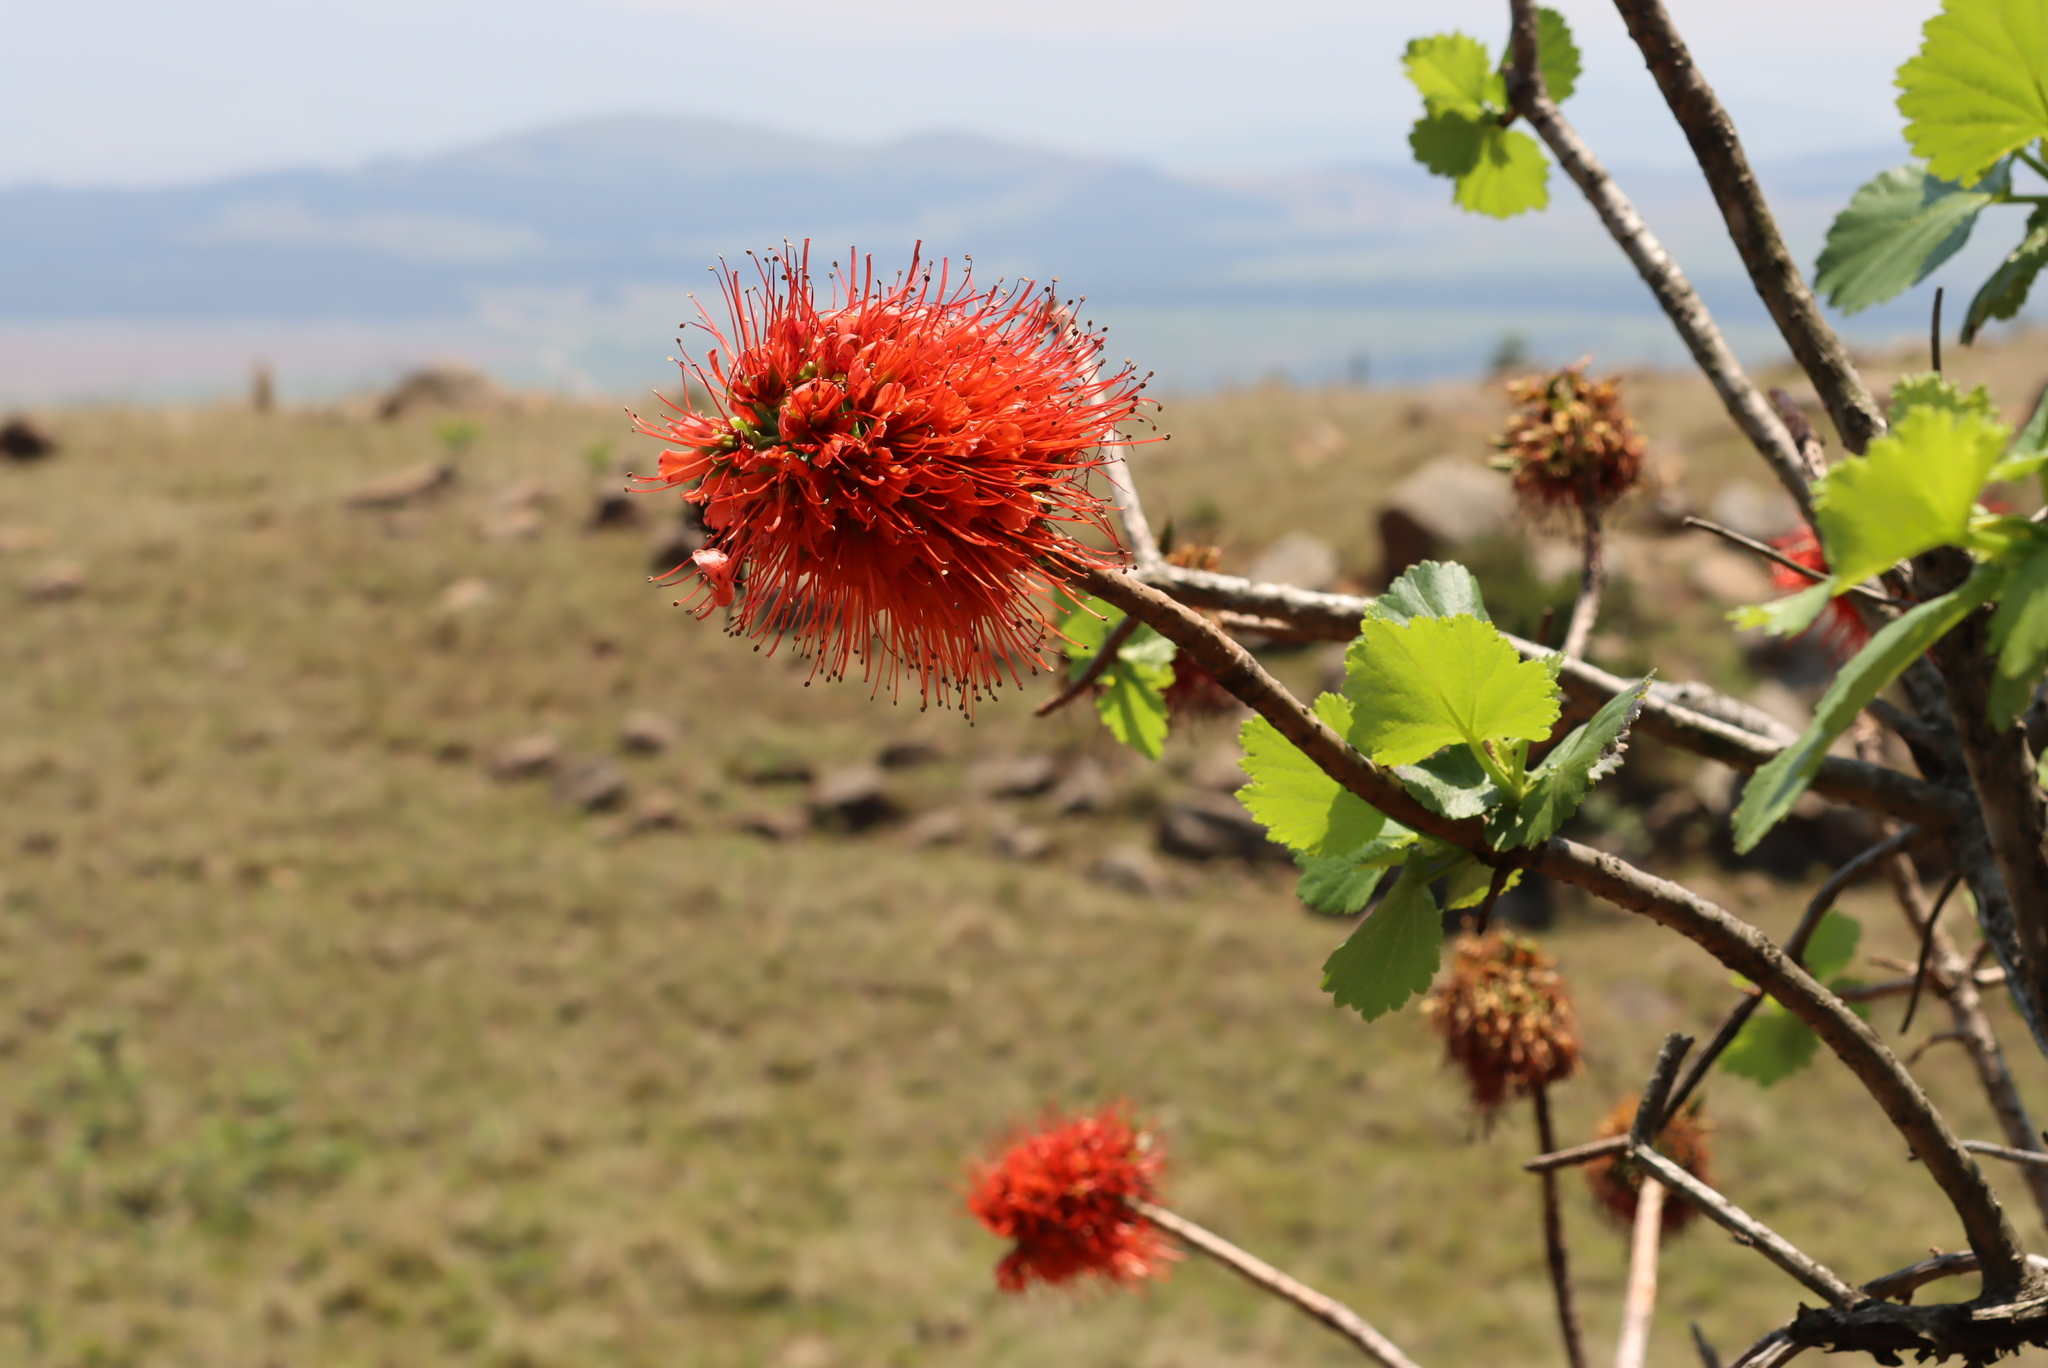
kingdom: Plantae
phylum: Tracheophyta
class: Magnoliopsida
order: Geraniales
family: Francoaceae
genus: Greyia
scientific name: Greyia sutherlandii
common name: Glossy bottlebrush
